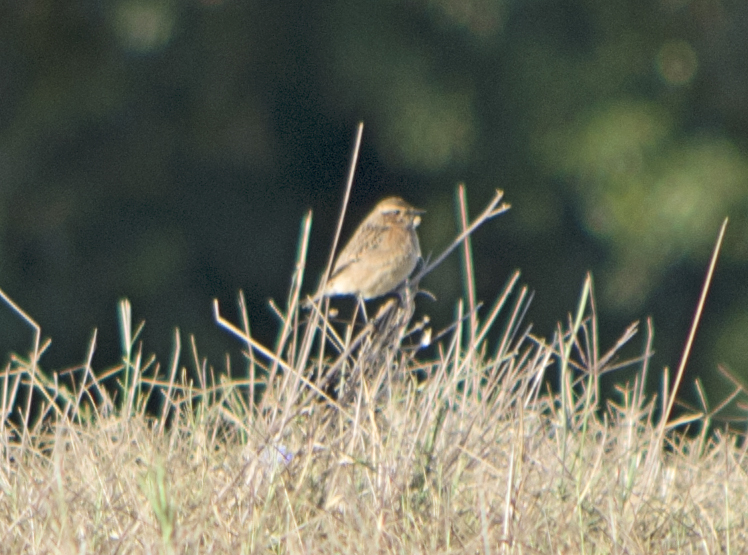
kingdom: Animalia
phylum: Chordata
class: Aves
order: Passeriformes
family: Muscicapidae
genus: Saxicola
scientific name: Saxicola rubicola
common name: European stonechat
